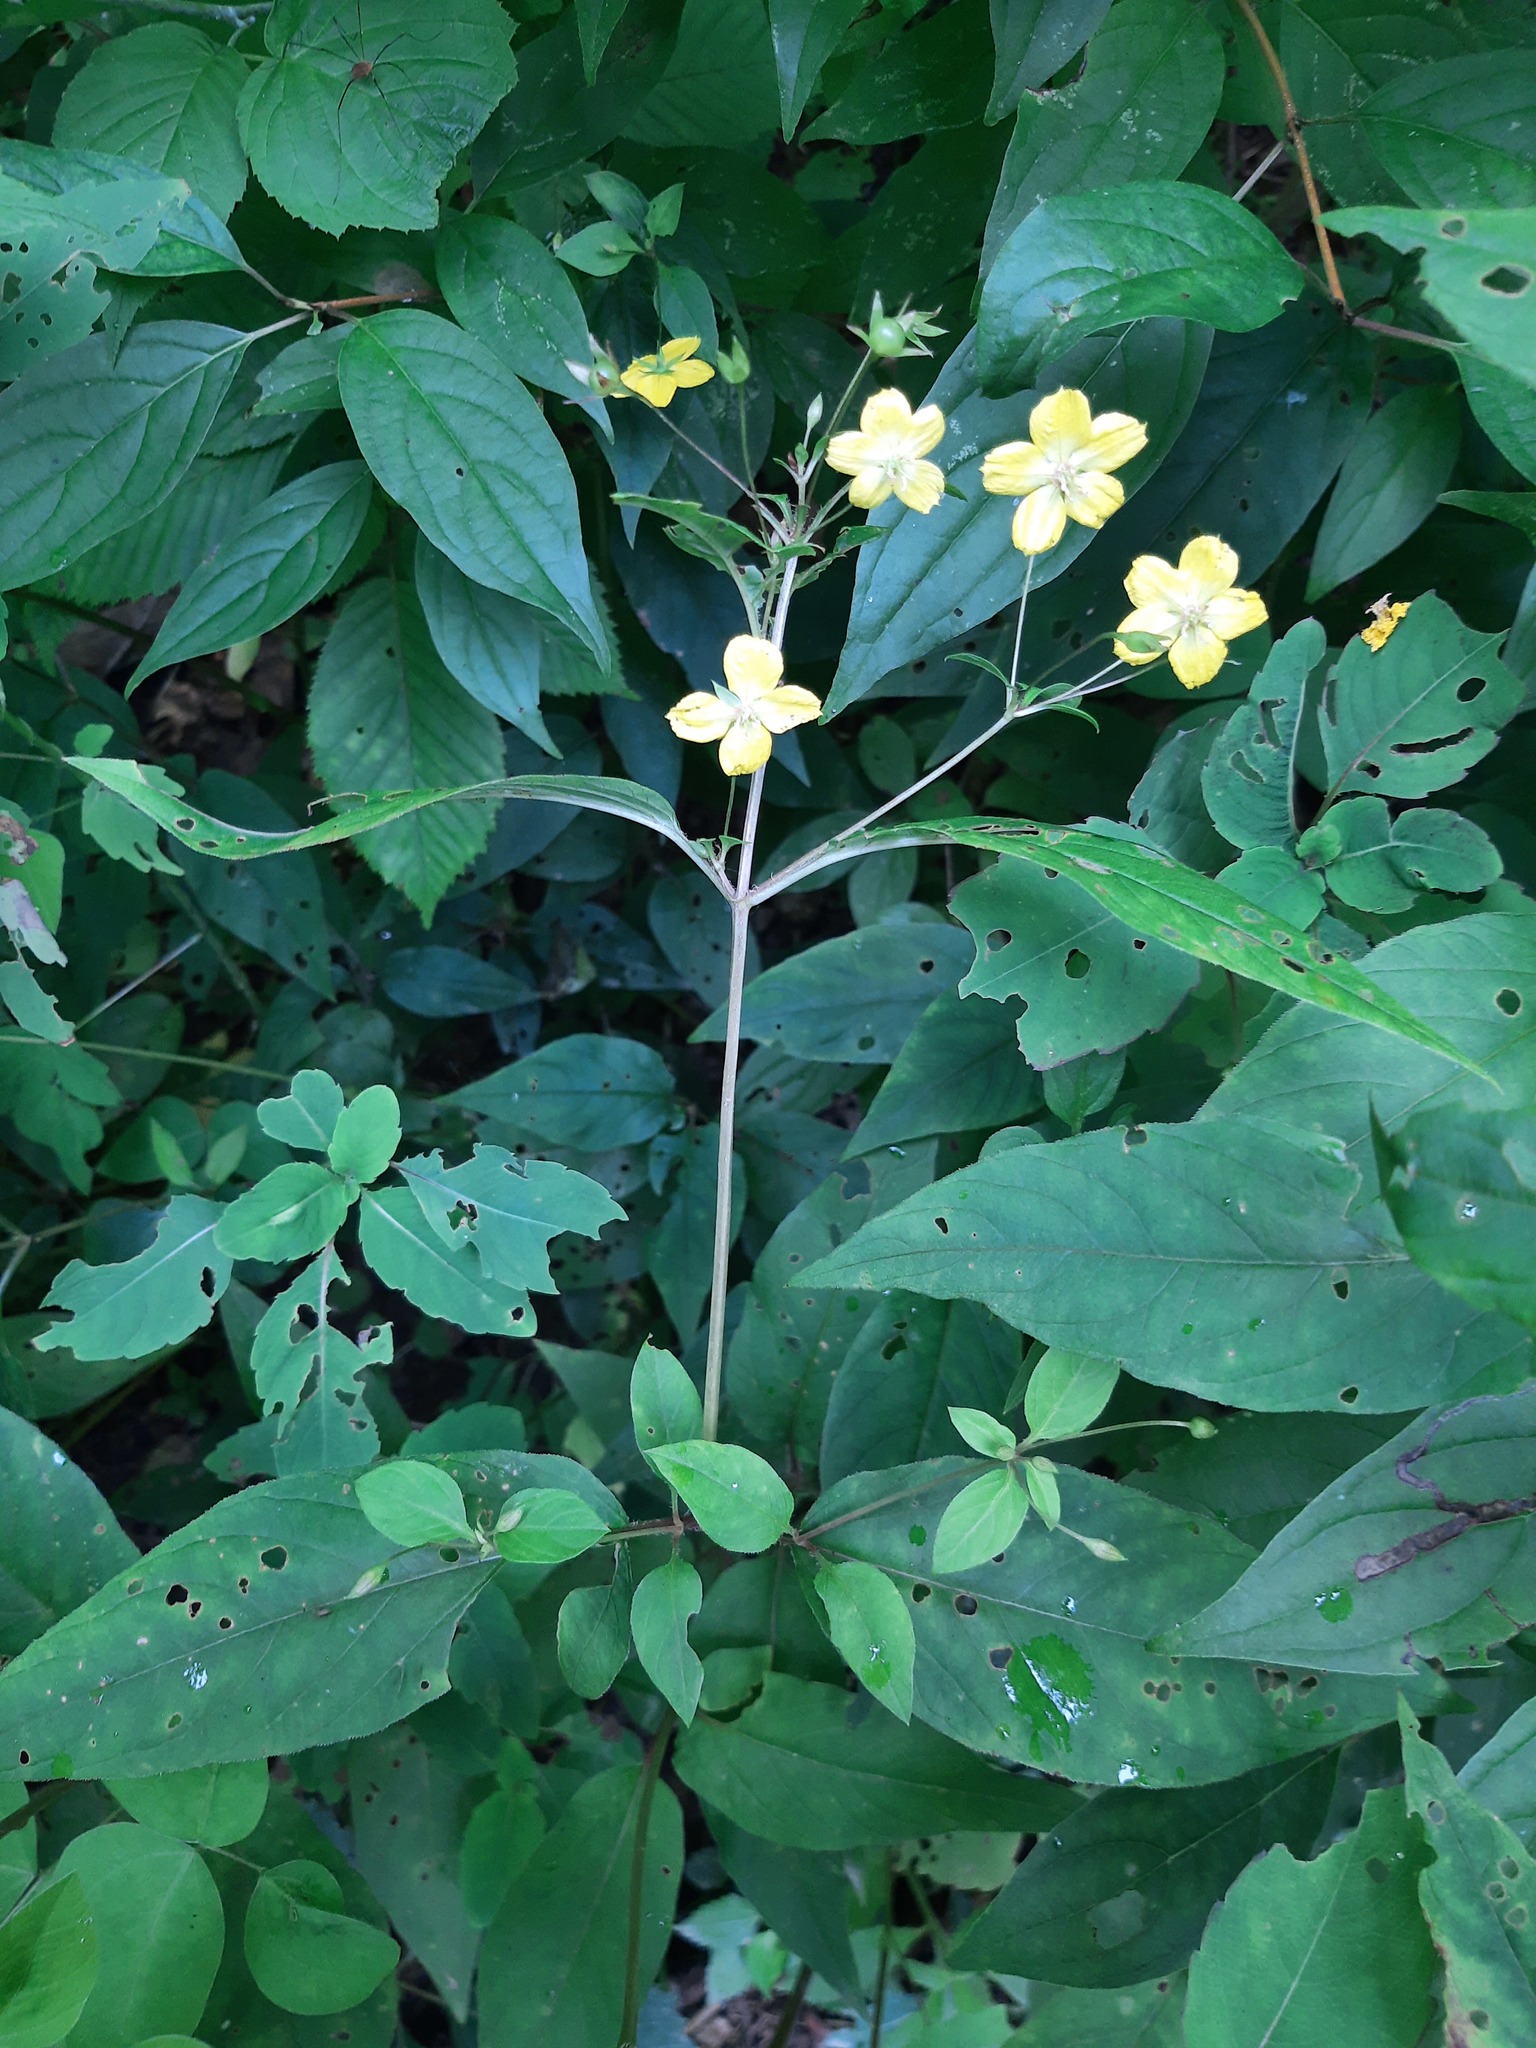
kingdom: Plantae
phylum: Tracheophyta
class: Magnoliopsida
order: Ericales
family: Primulaceae
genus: Lysimachia
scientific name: Lysimachia ciliata
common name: Fringed loosestrife
